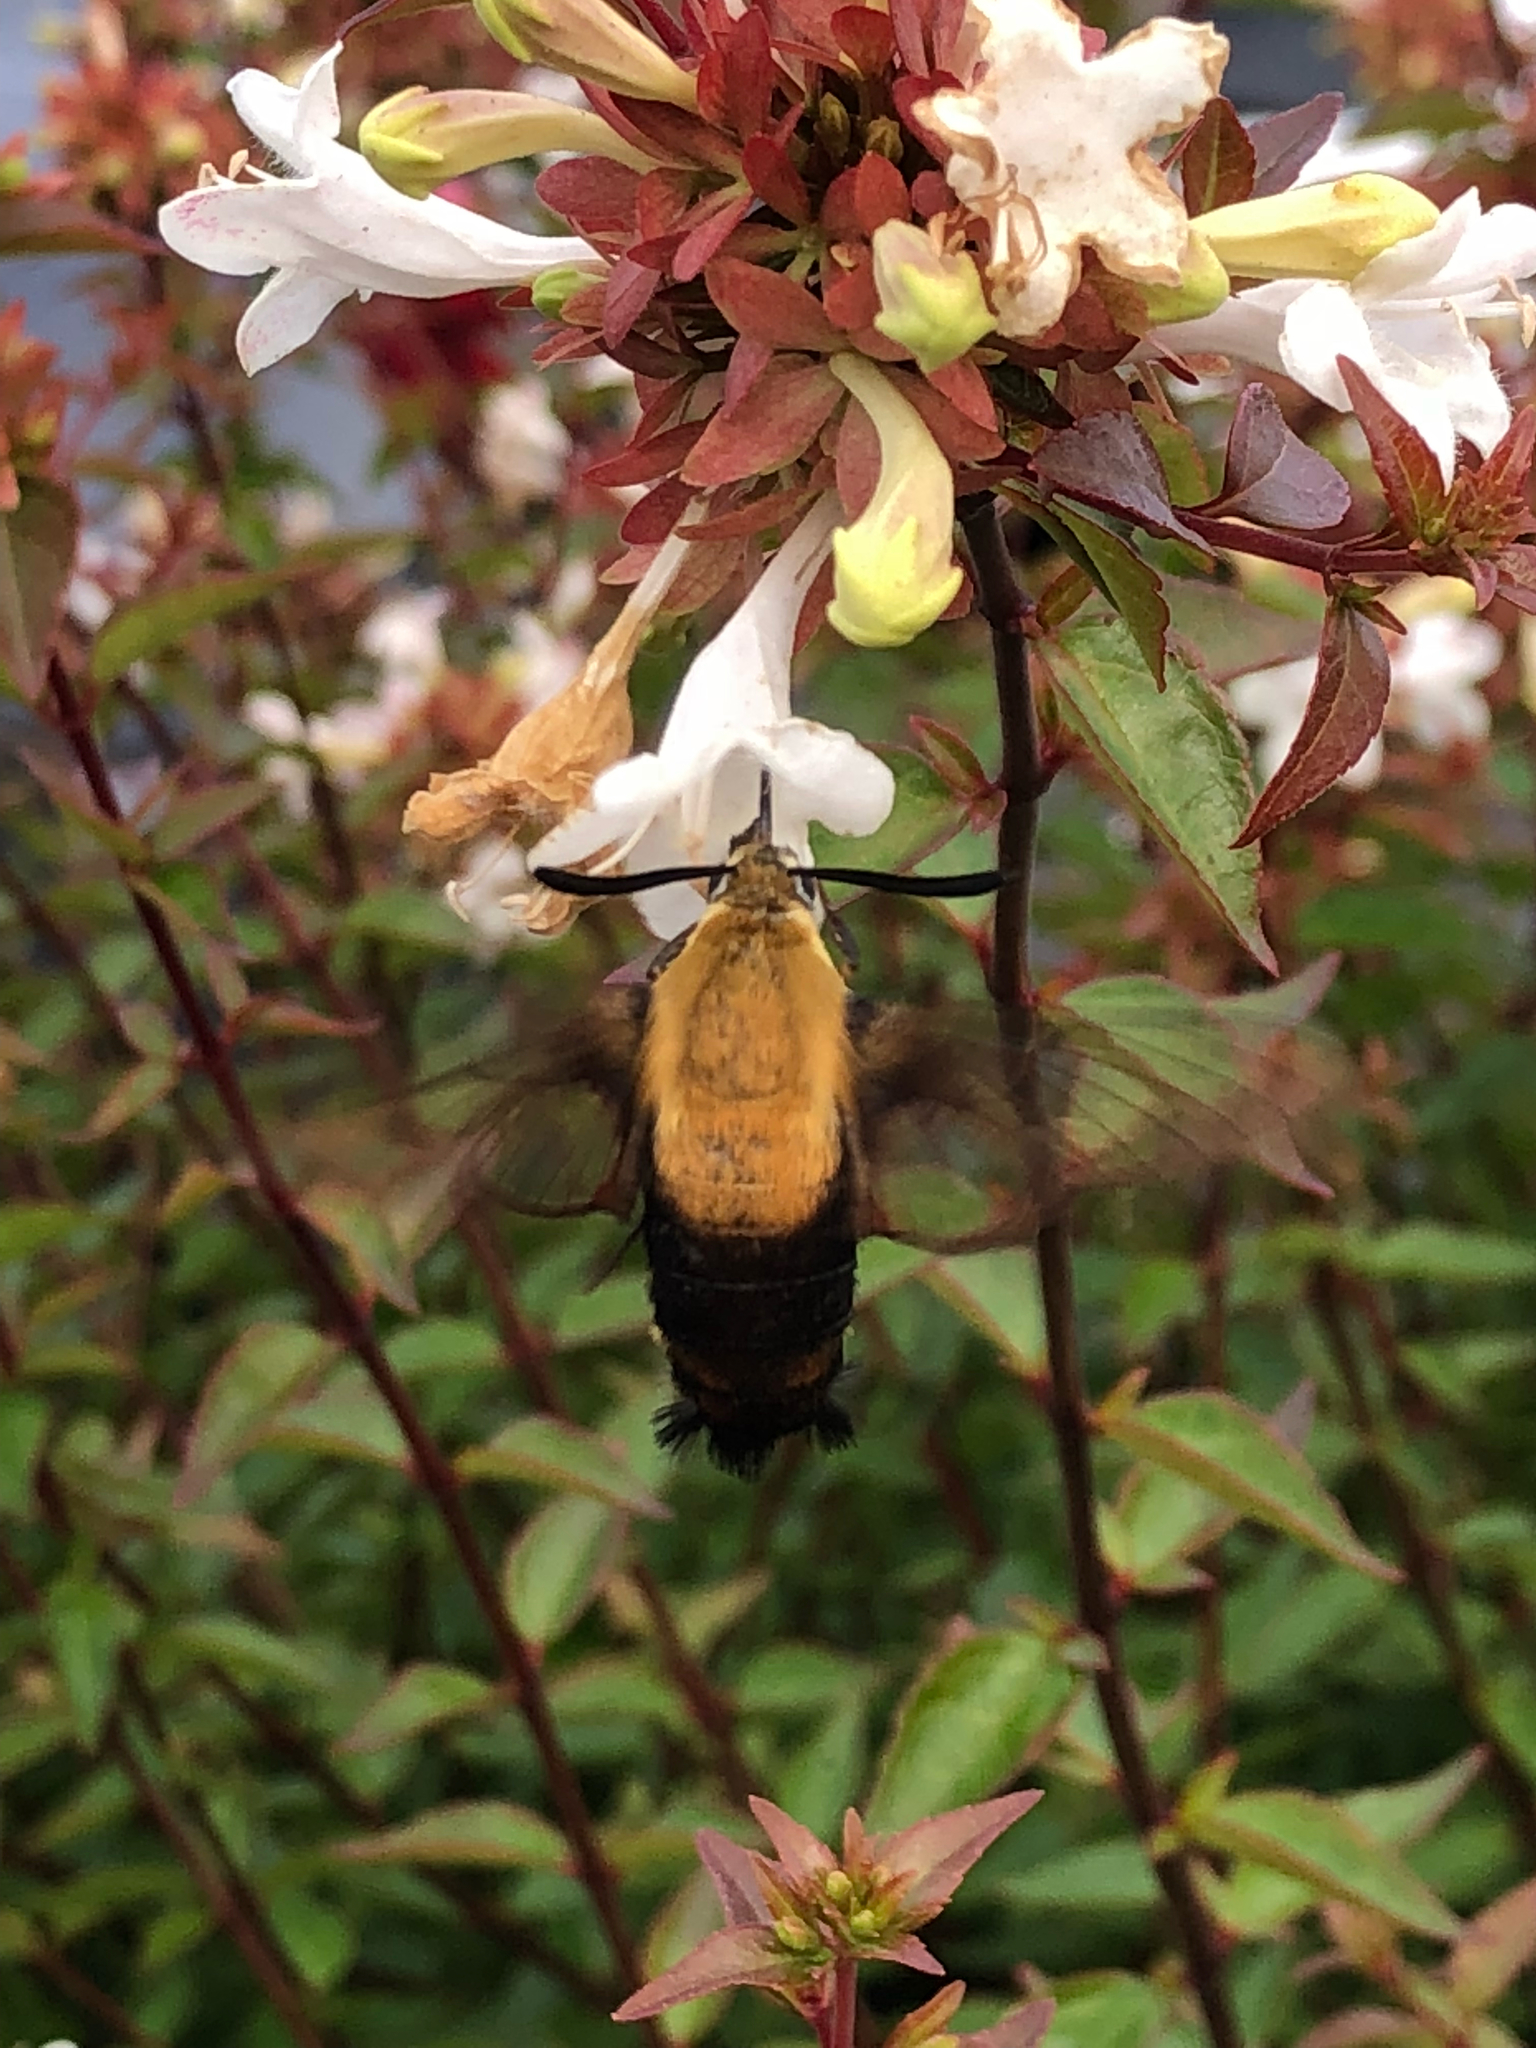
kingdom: Animalia
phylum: Arthropoda
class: Insecta
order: Lepidoptera
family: Sphingidae
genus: Hemaris
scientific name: Hemaris diffinis
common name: Bumblebee moth
